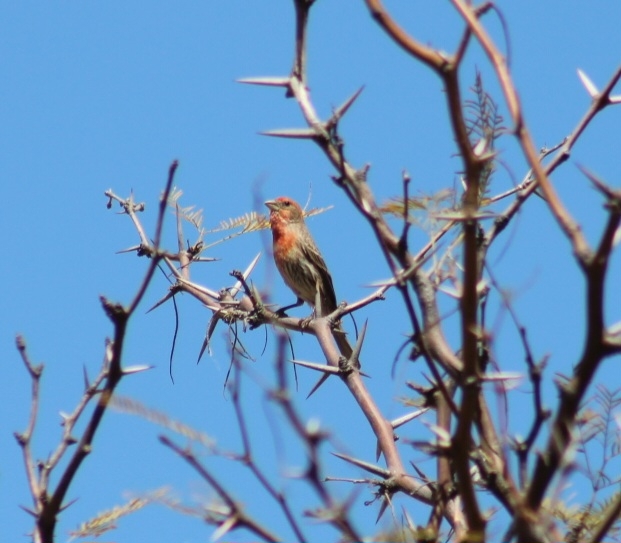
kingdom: Animalia
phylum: Chordata
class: Aves
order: Passeriformes
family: Fringillidae
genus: Haemorhous
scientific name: Haemorhous mexicanus
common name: House finch
